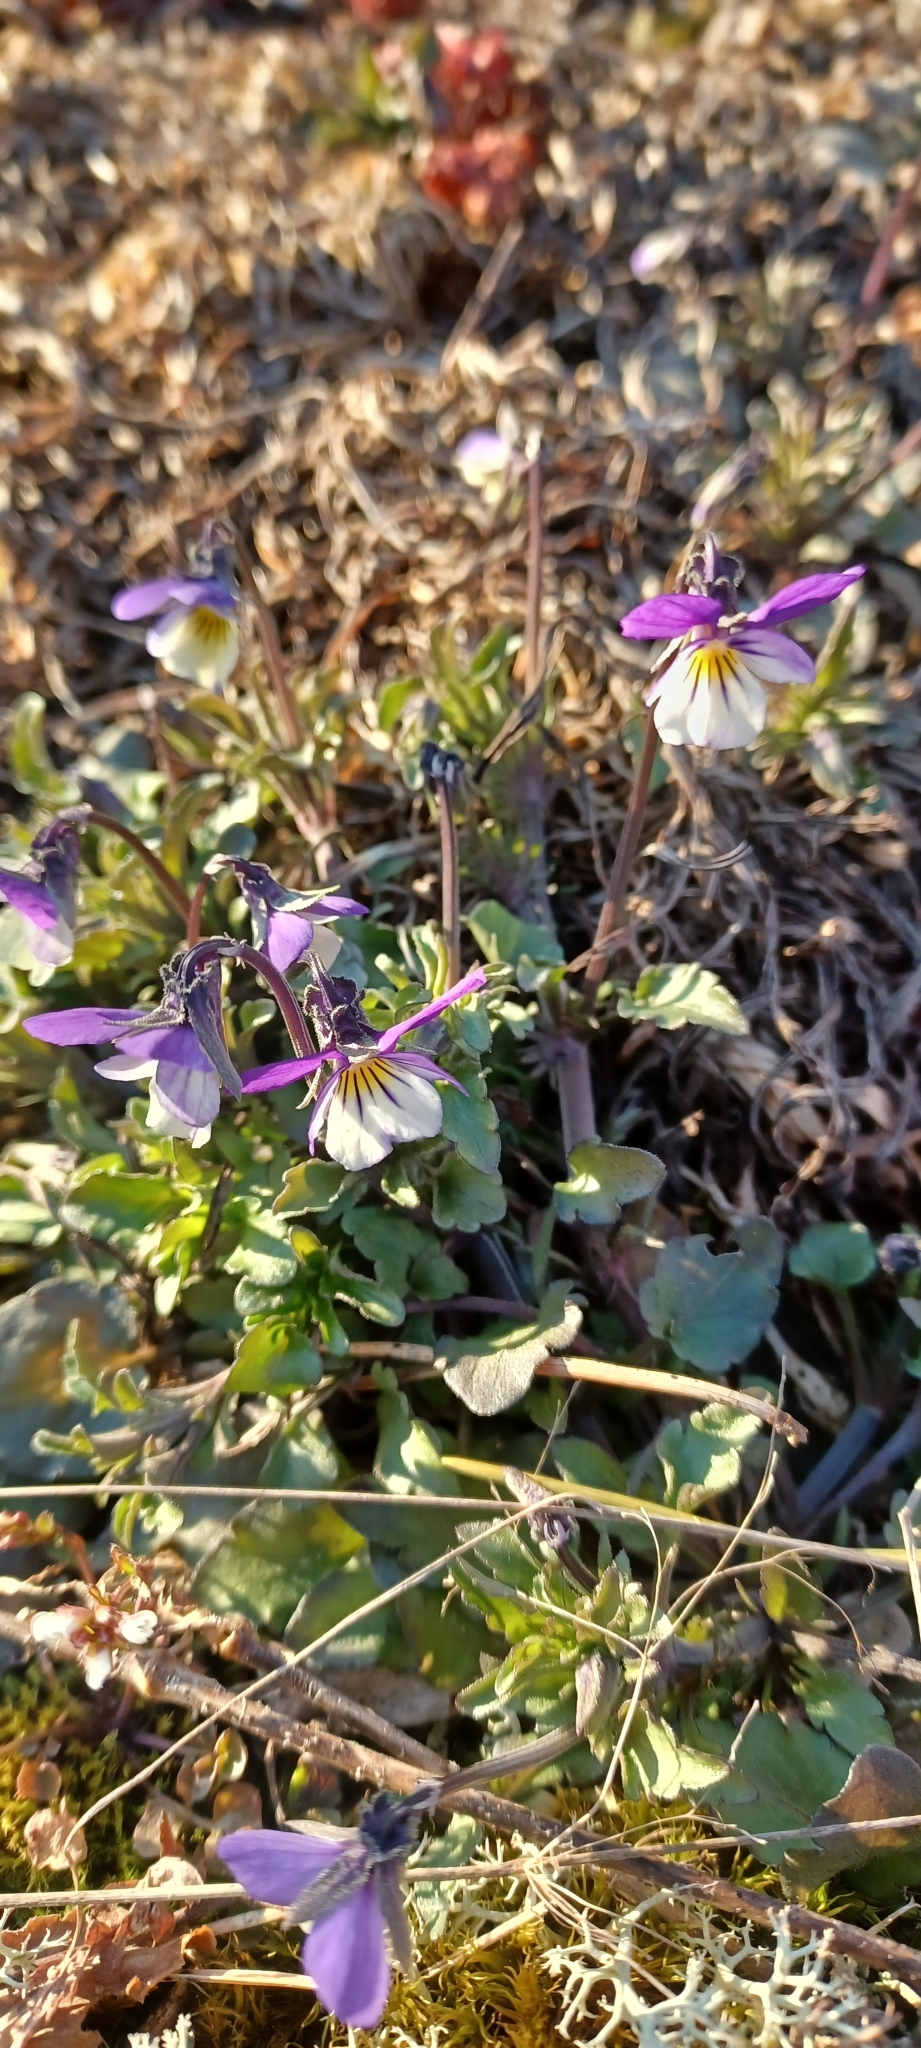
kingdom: Plantae
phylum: Tracheophyta
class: Magnoliopsida
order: Malpighiales
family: Violaceae
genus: Viola
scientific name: Viola tricolor
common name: Pansy
